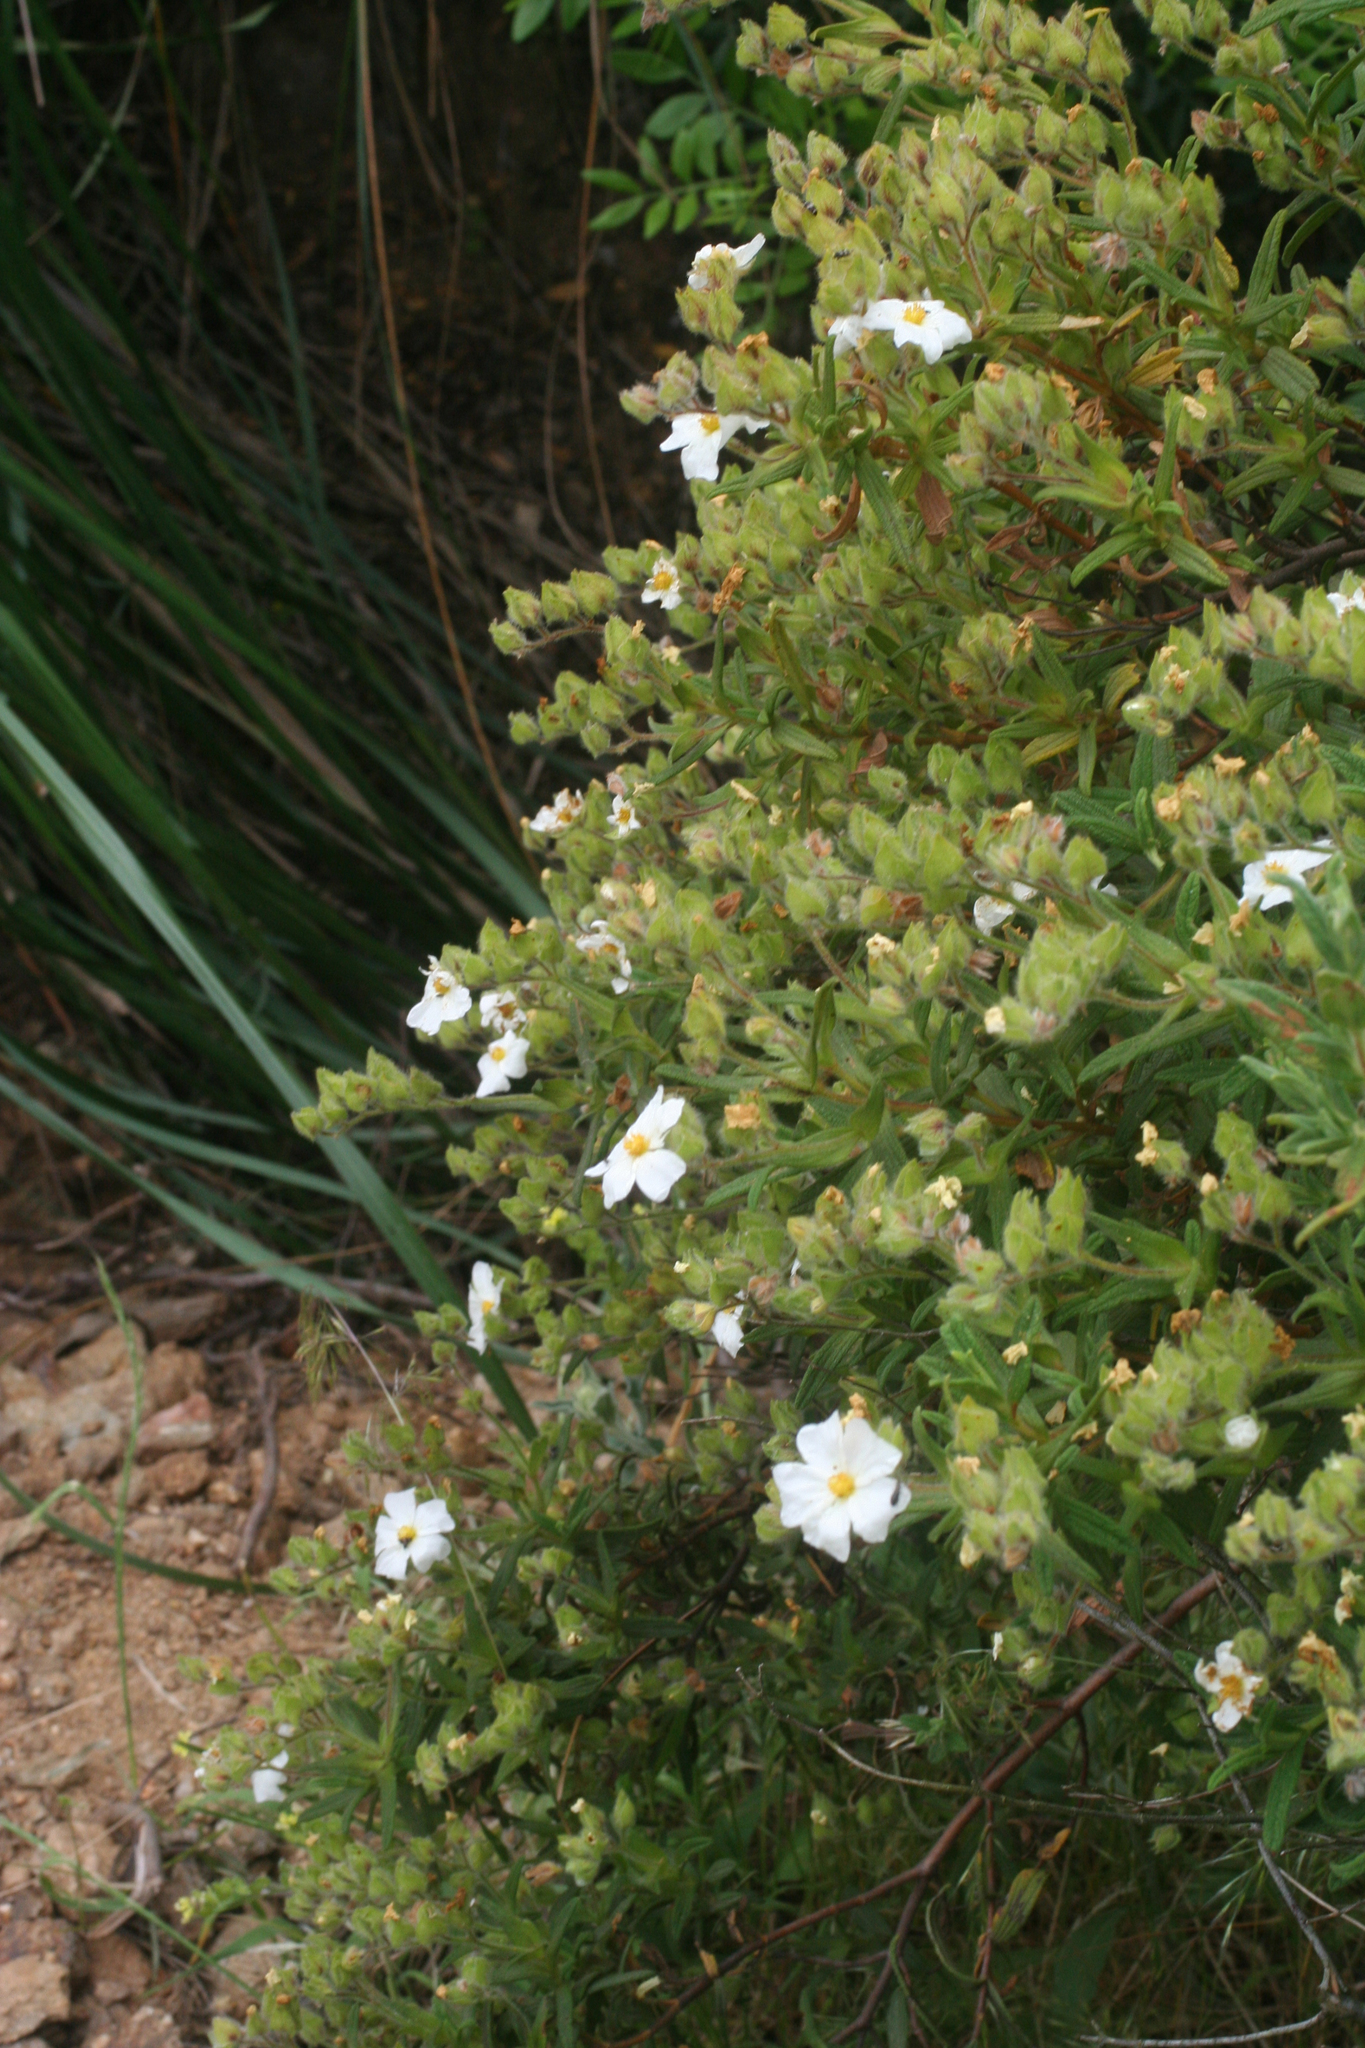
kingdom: Plantae
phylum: Tracheophyta
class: Magnoliopsida
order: Malvales
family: Cistaceae
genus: Cistus
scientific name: Cistus monspeliensis
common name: Montpelier cistus
